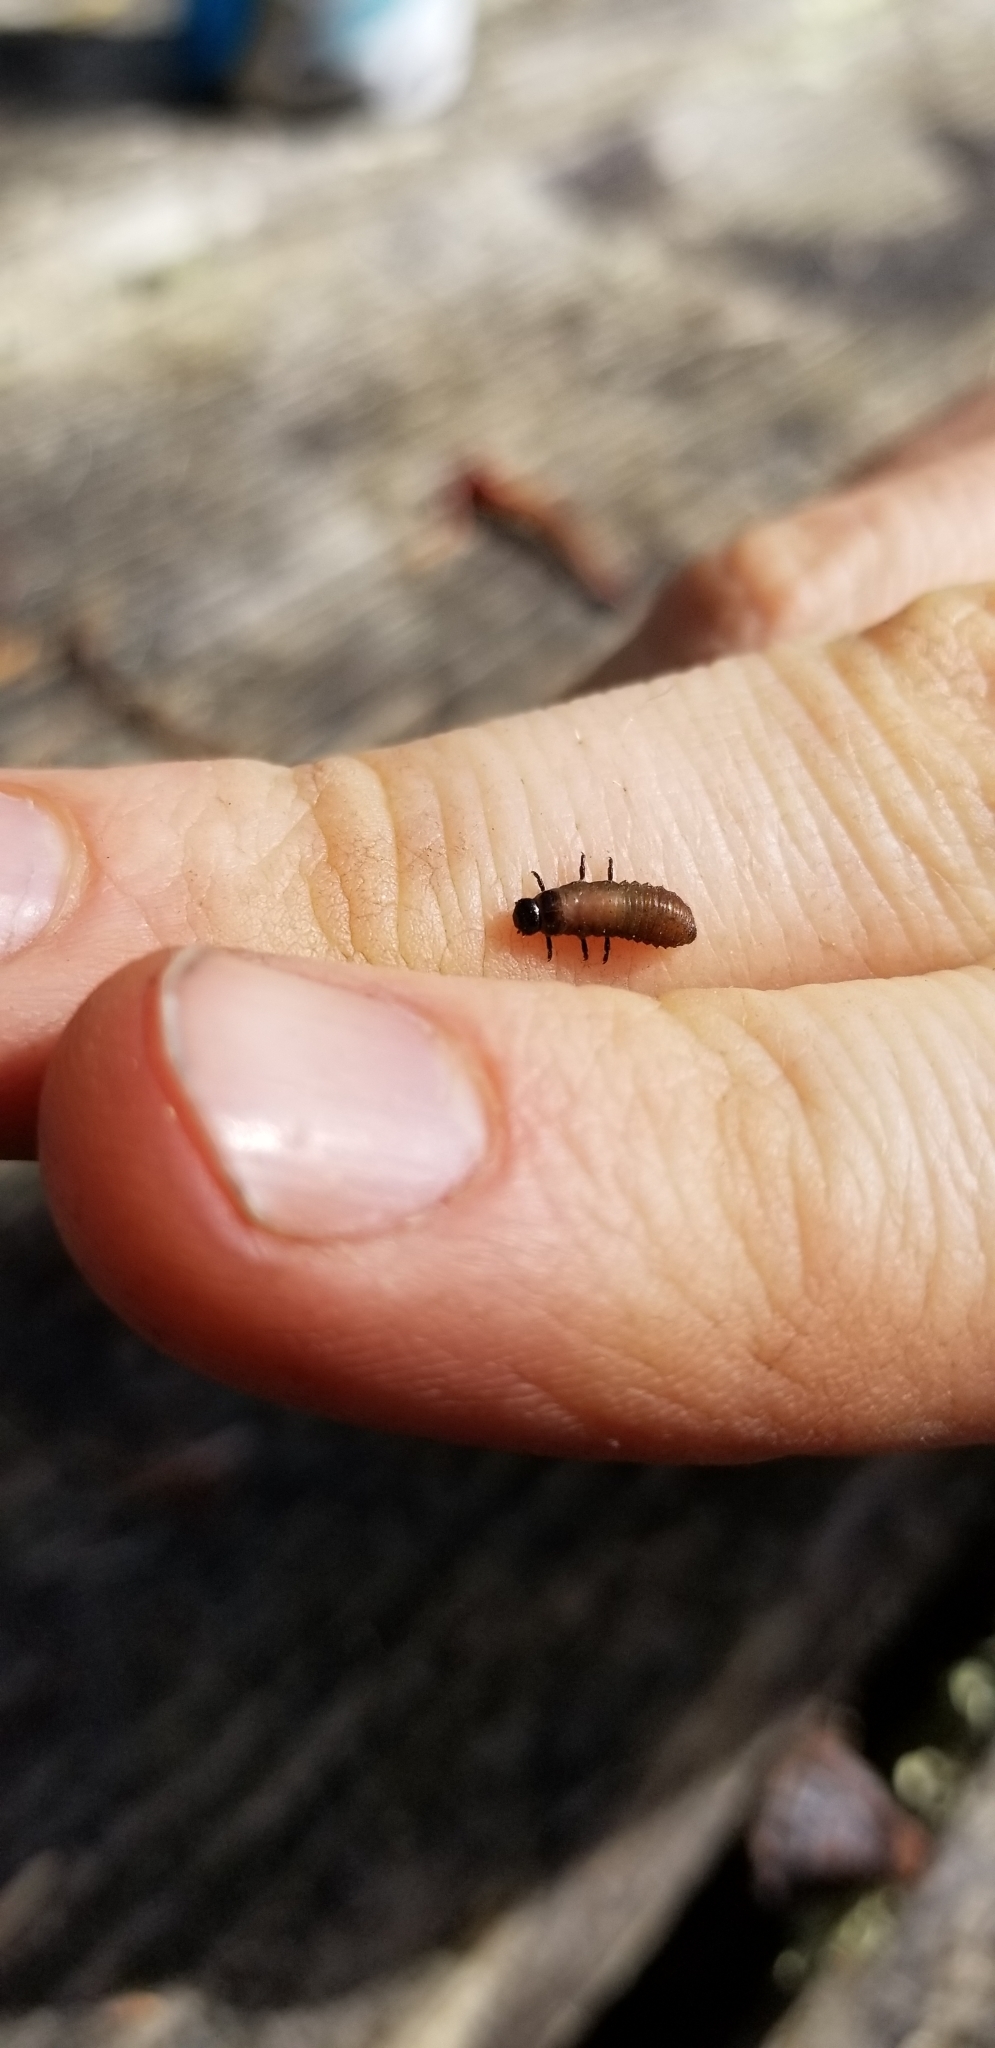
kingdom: Animalia
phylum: Arthropoda
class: Insecta
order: Coleoptera
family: Chrysomelidae
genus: Trachymela
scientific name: Trachymela sloanei
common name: Australian tortoise beetle
